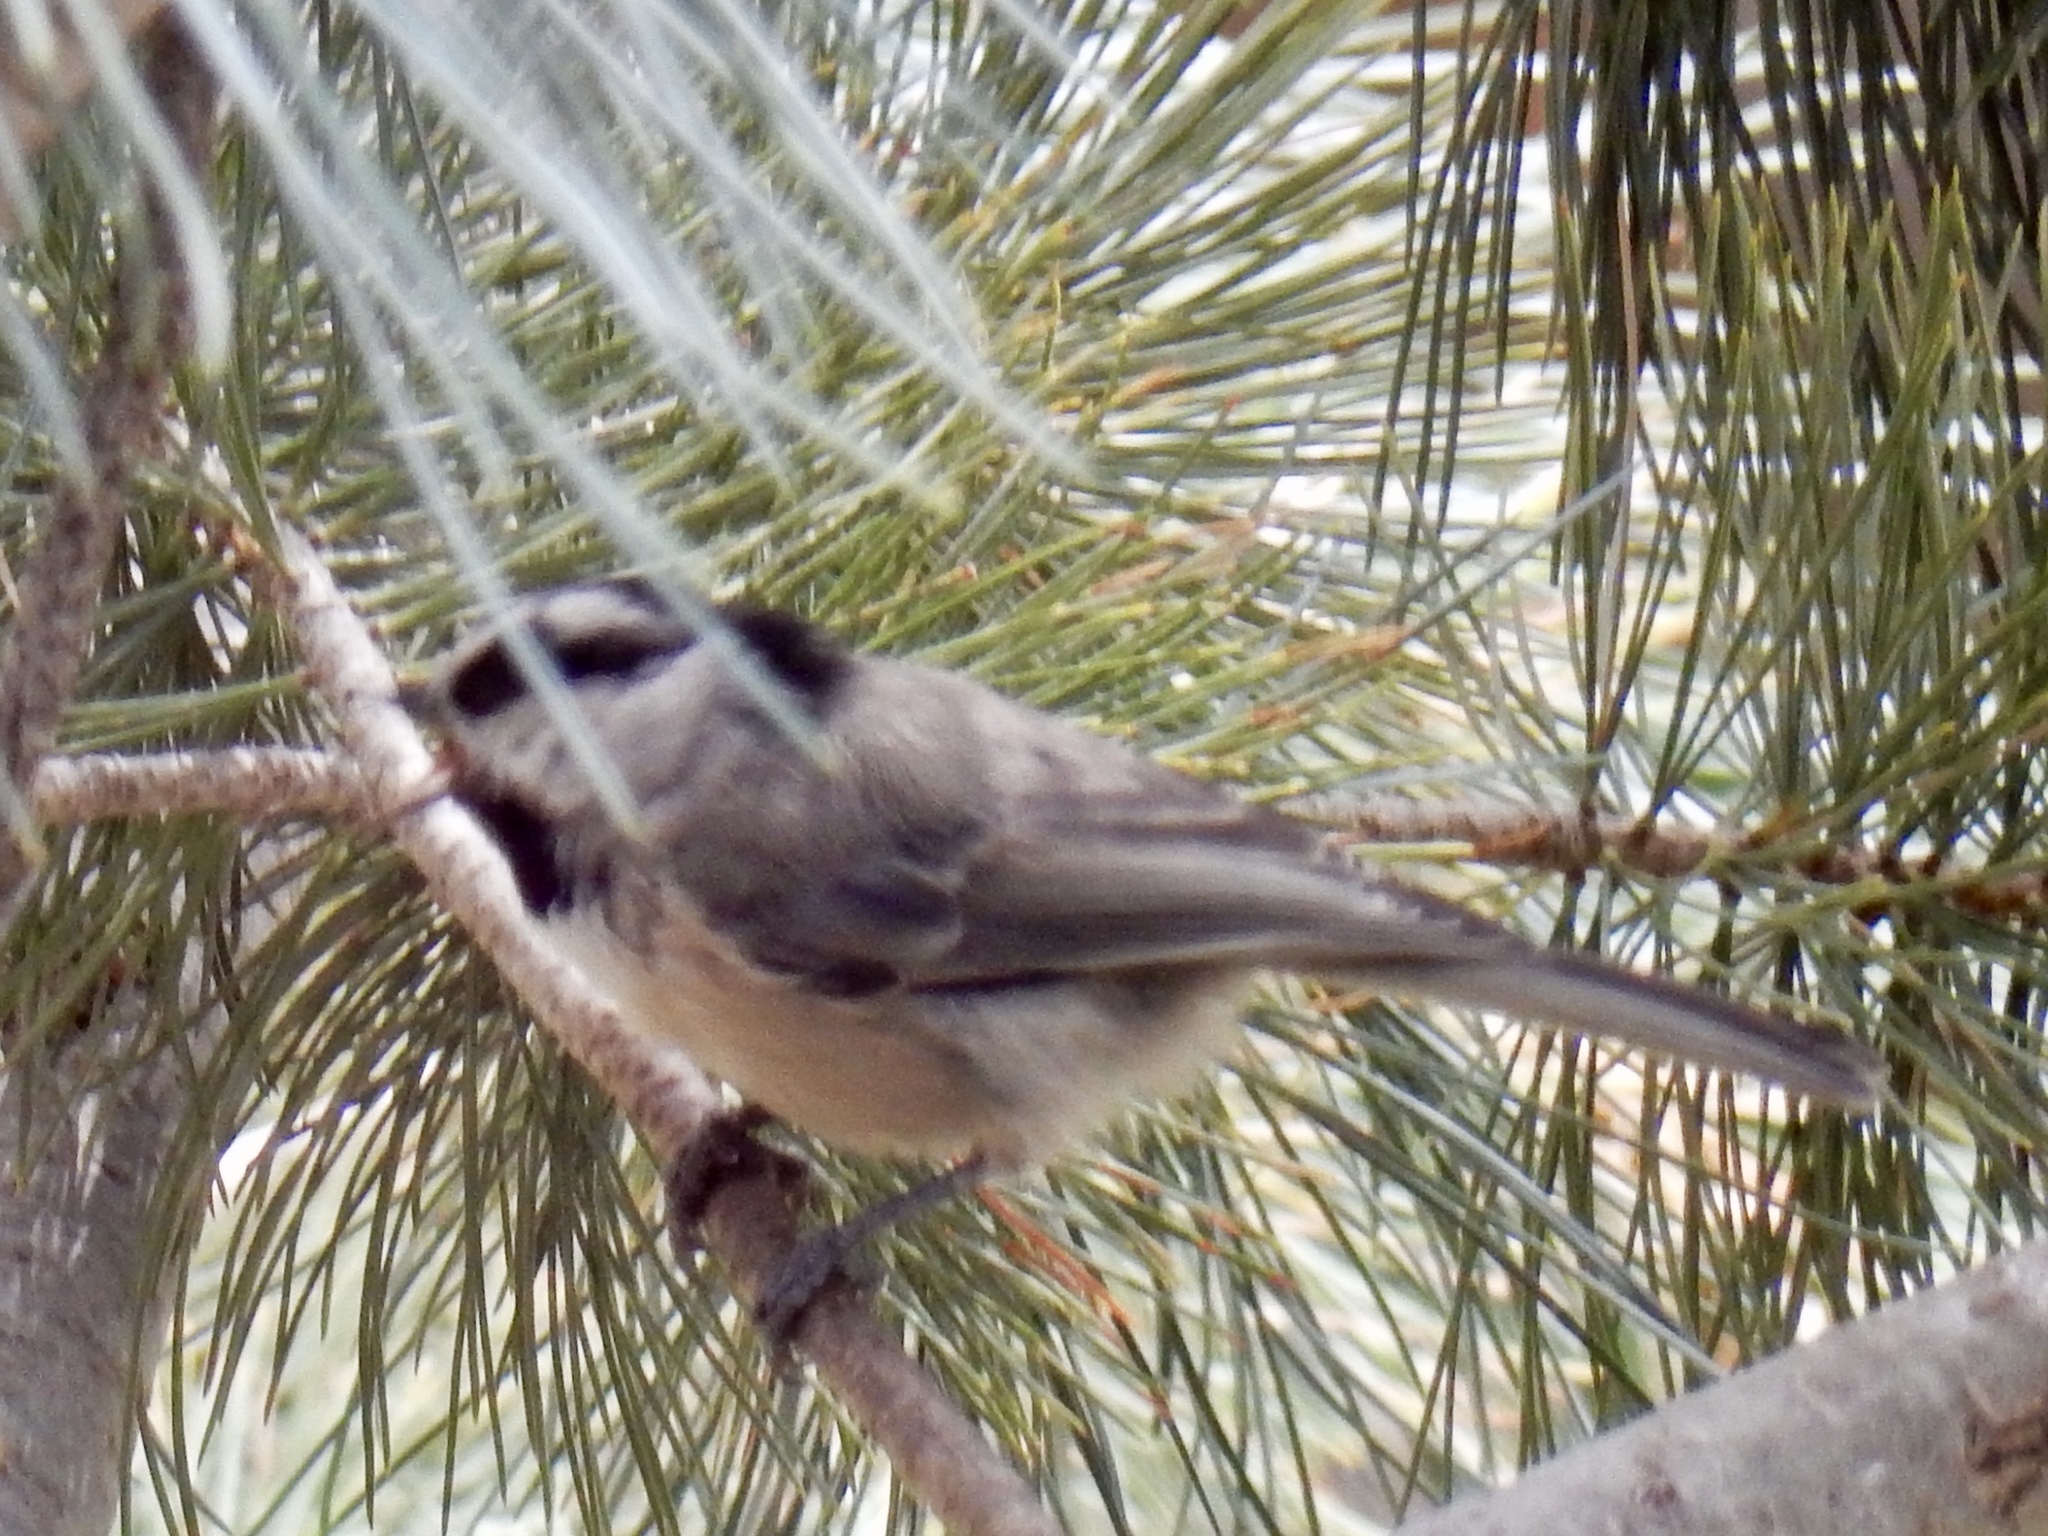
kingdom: Animalia
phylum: Chordata
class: Aves
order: Passeriformes
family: Paridae
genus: Poecile
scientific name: Poecile gambeli
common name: Mountain chickadee
